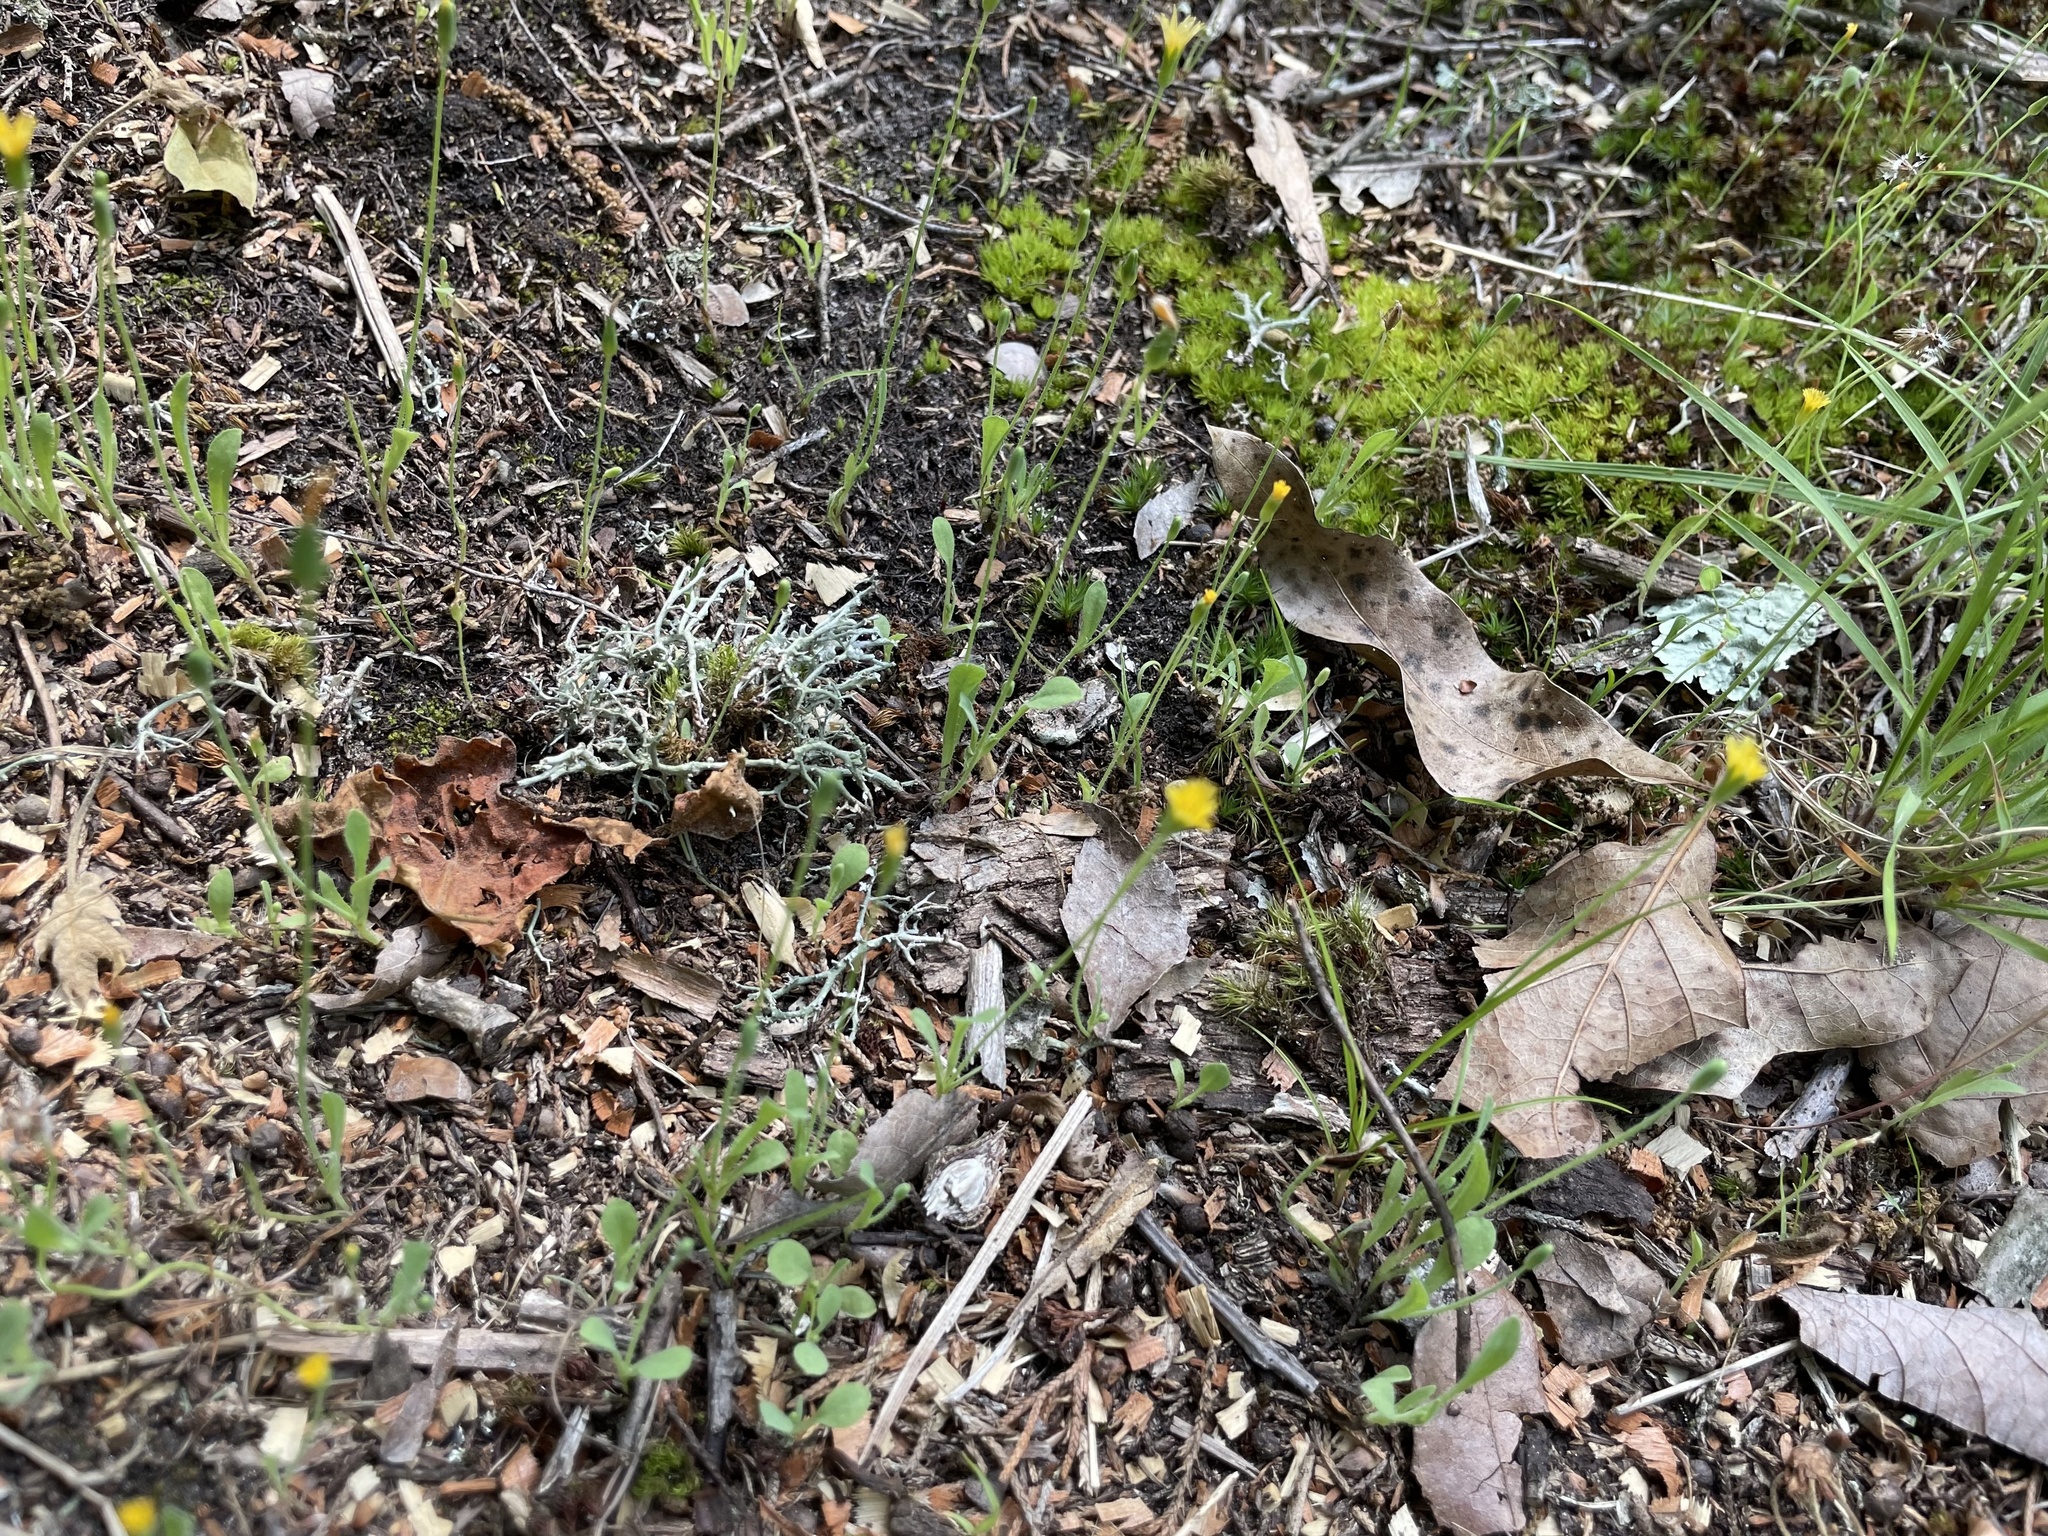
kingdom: Plantae
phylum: Tracheophyta
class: Magnoliopsida
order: Asterales
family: Asteraceae
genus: Krigia
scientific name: Krigia virginica
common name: Virginia dwarf-dandelion
